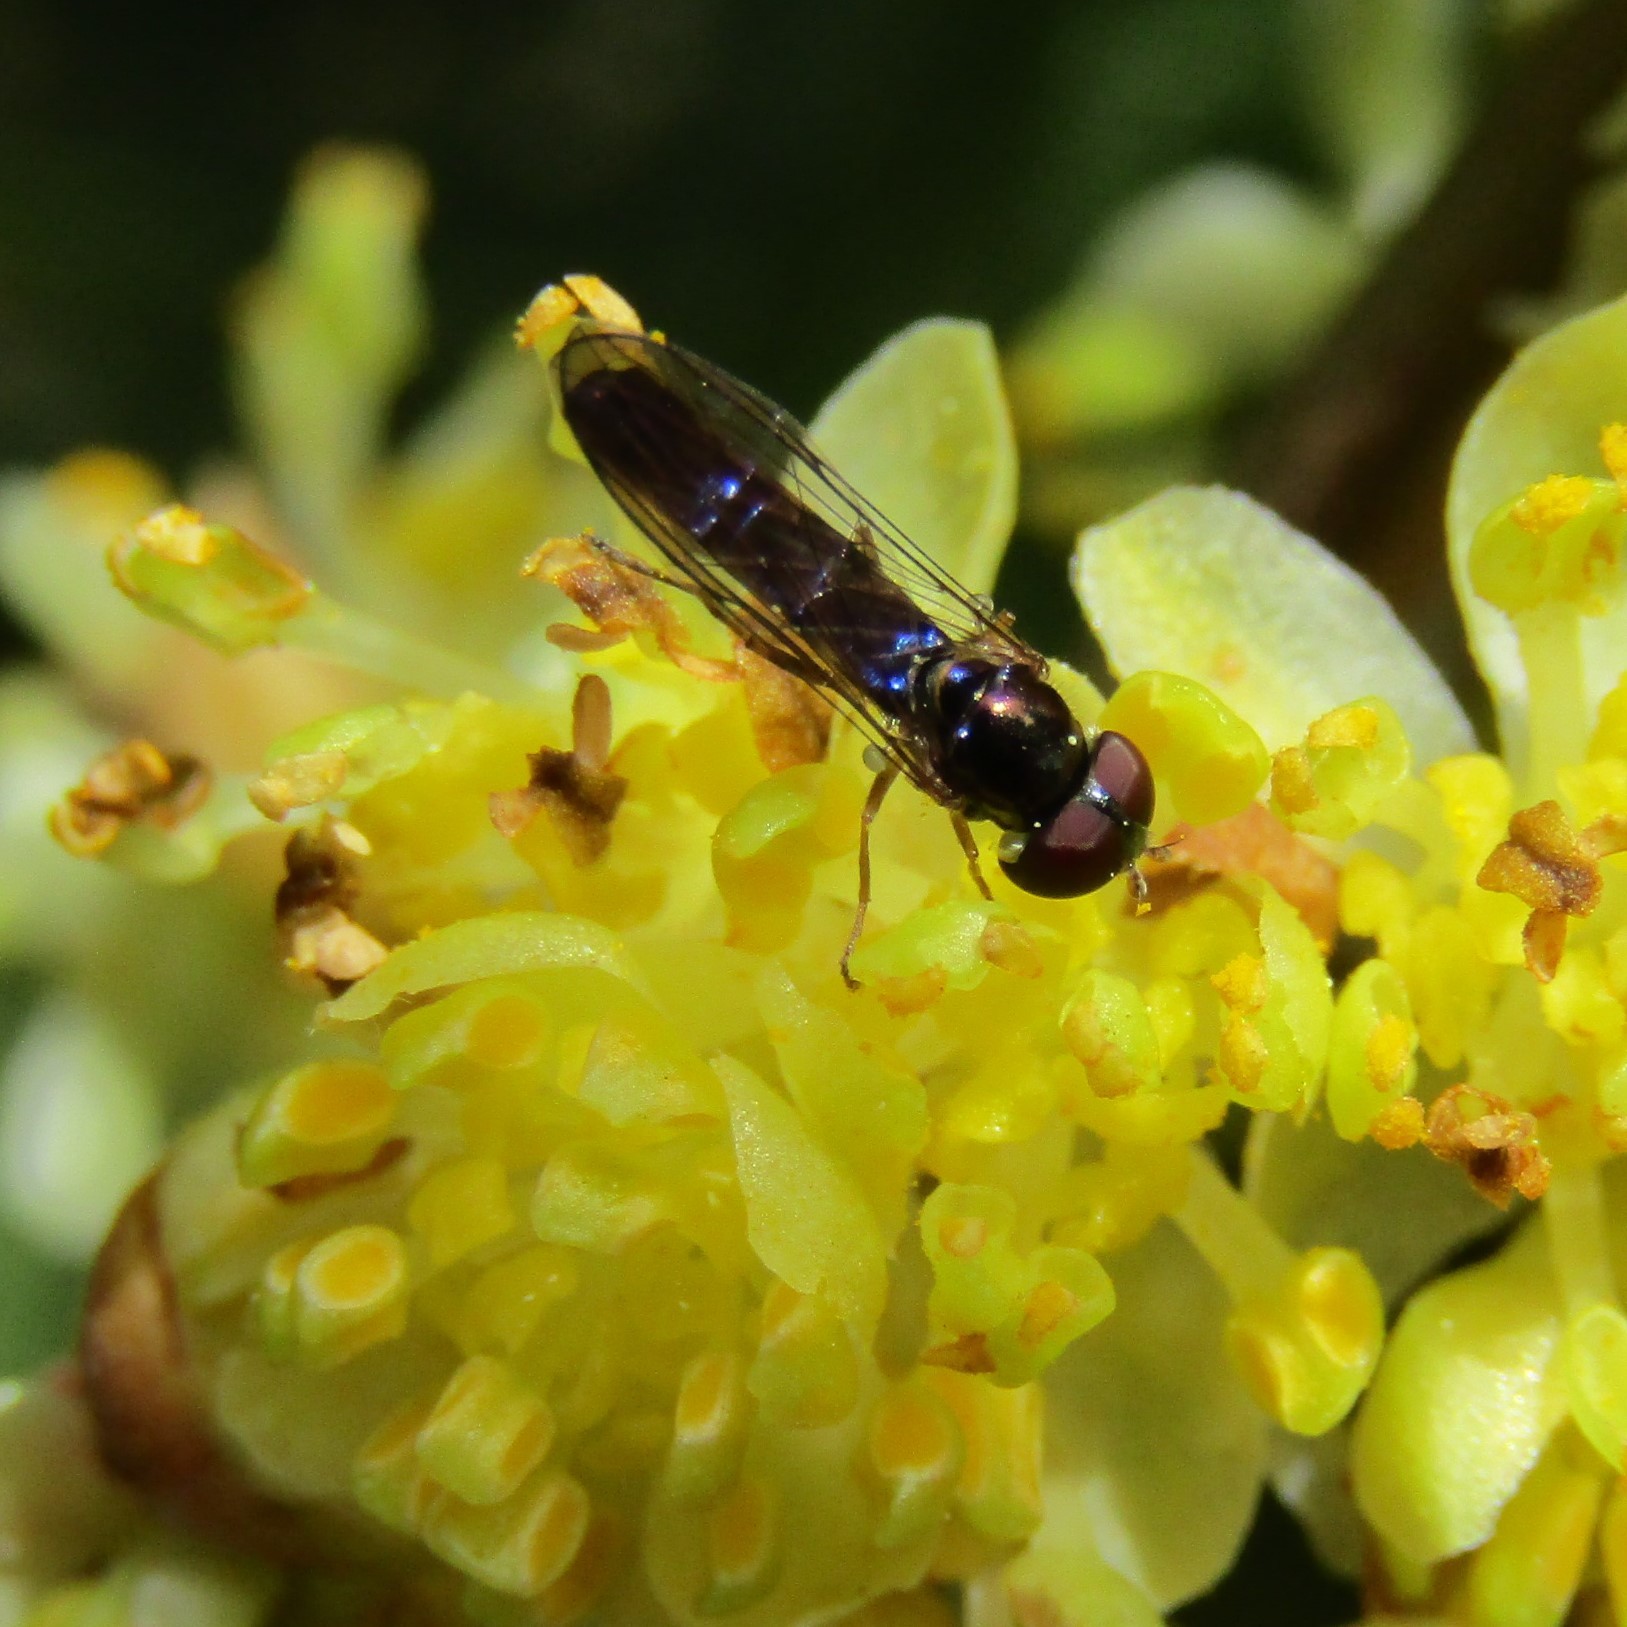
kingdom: Animalia
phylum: Arthropoda
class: Insecta
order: Diptera
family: Syrphidae
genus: Allograpta
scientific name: Allograpta hollowayae
